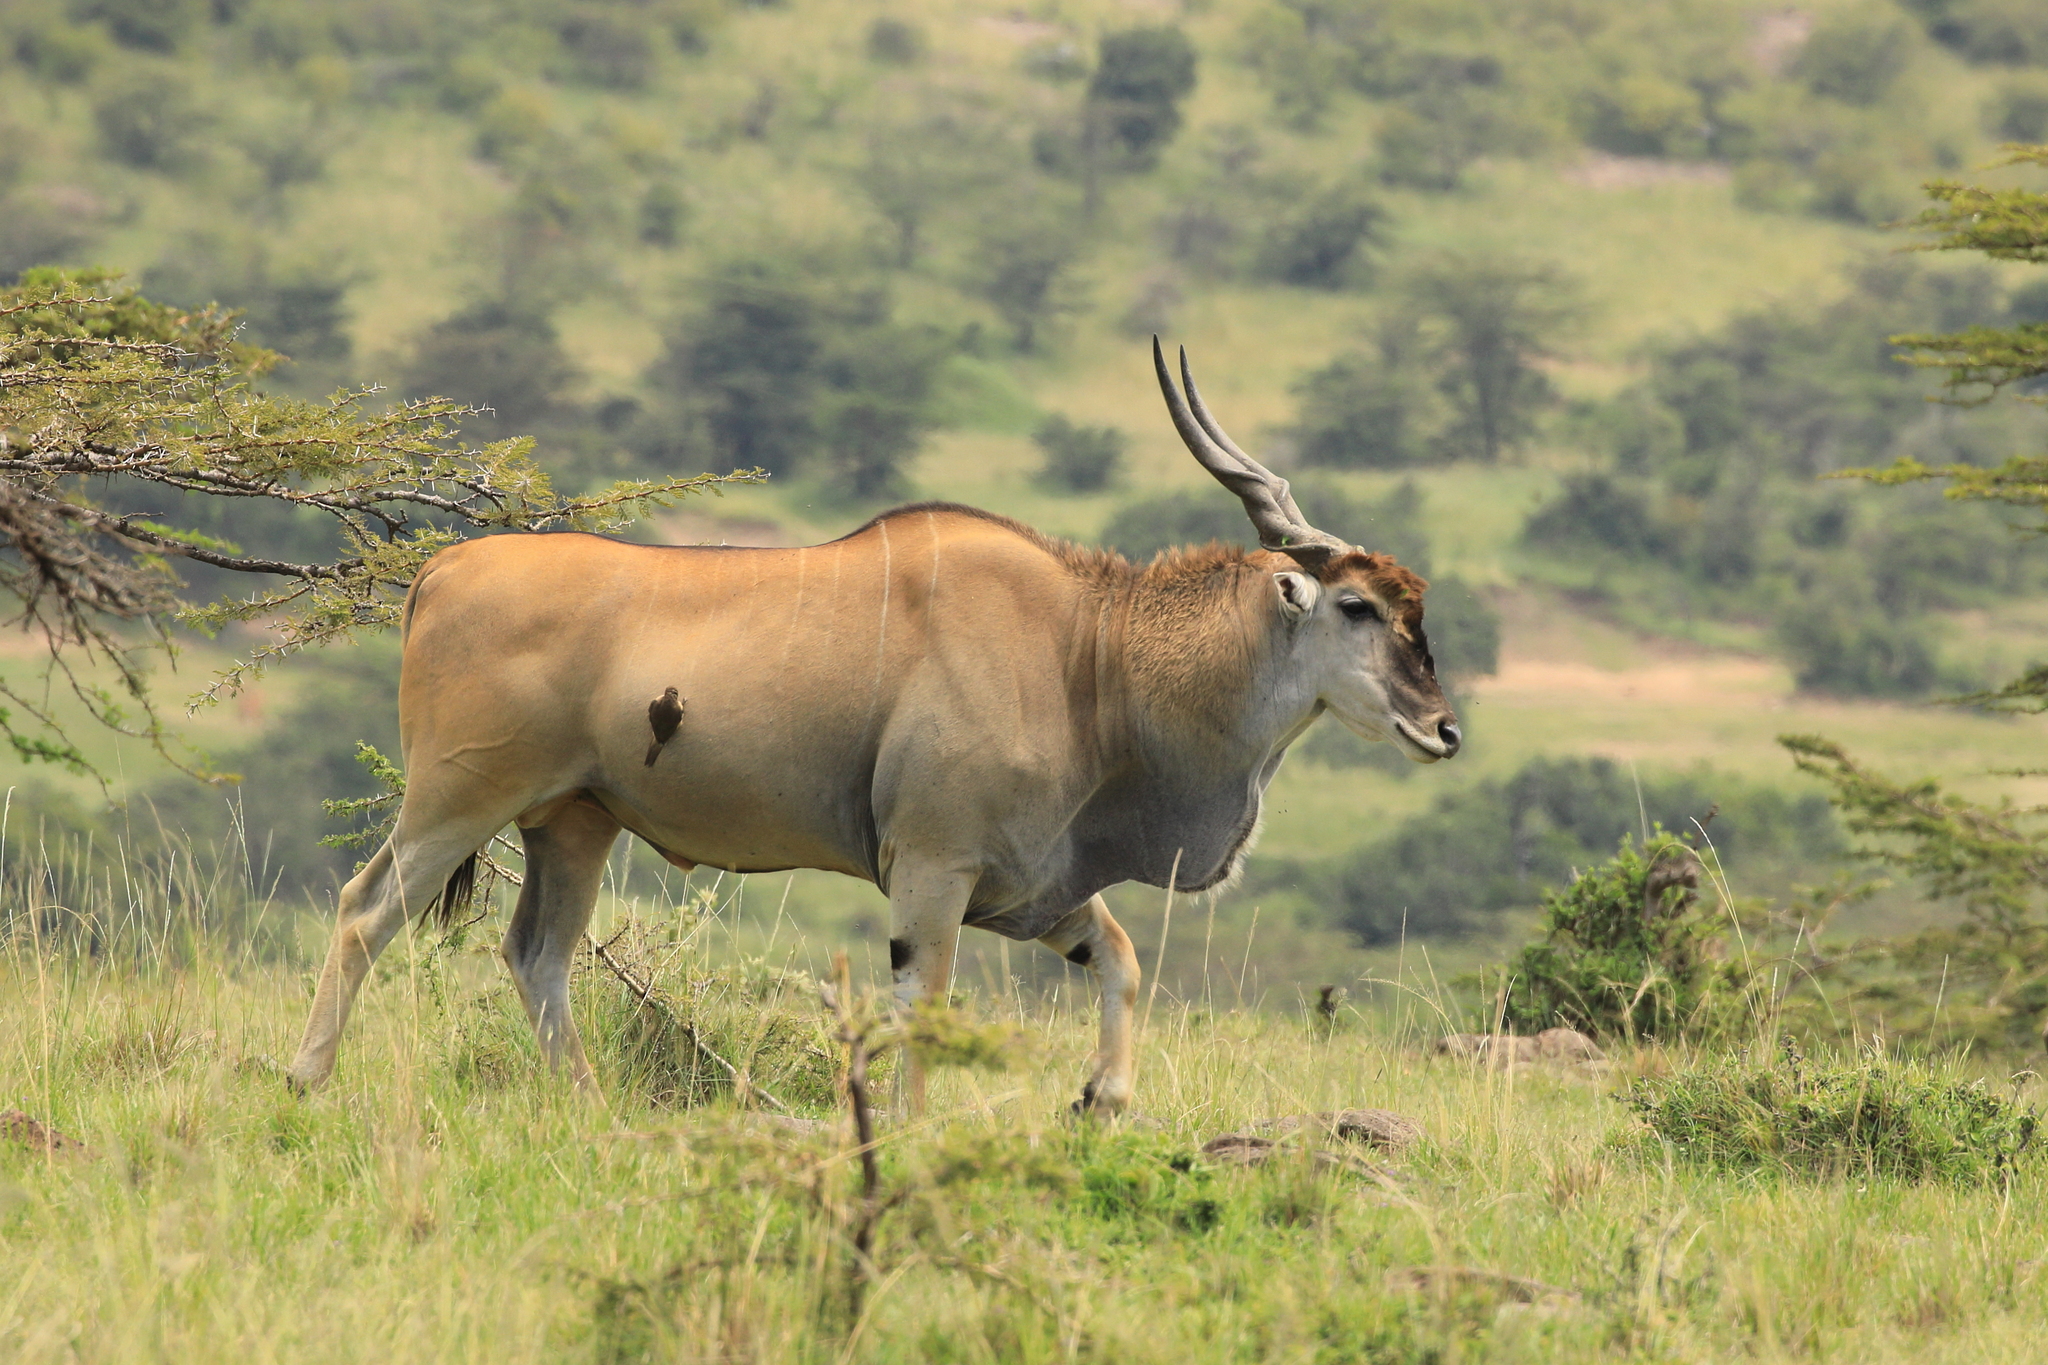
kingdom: Animalia
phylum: Chordata
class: Mammalia
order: Artiodactyla
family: Bovidae
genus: Taurotragus
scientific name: Taurotragus oryx
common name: Common eland
